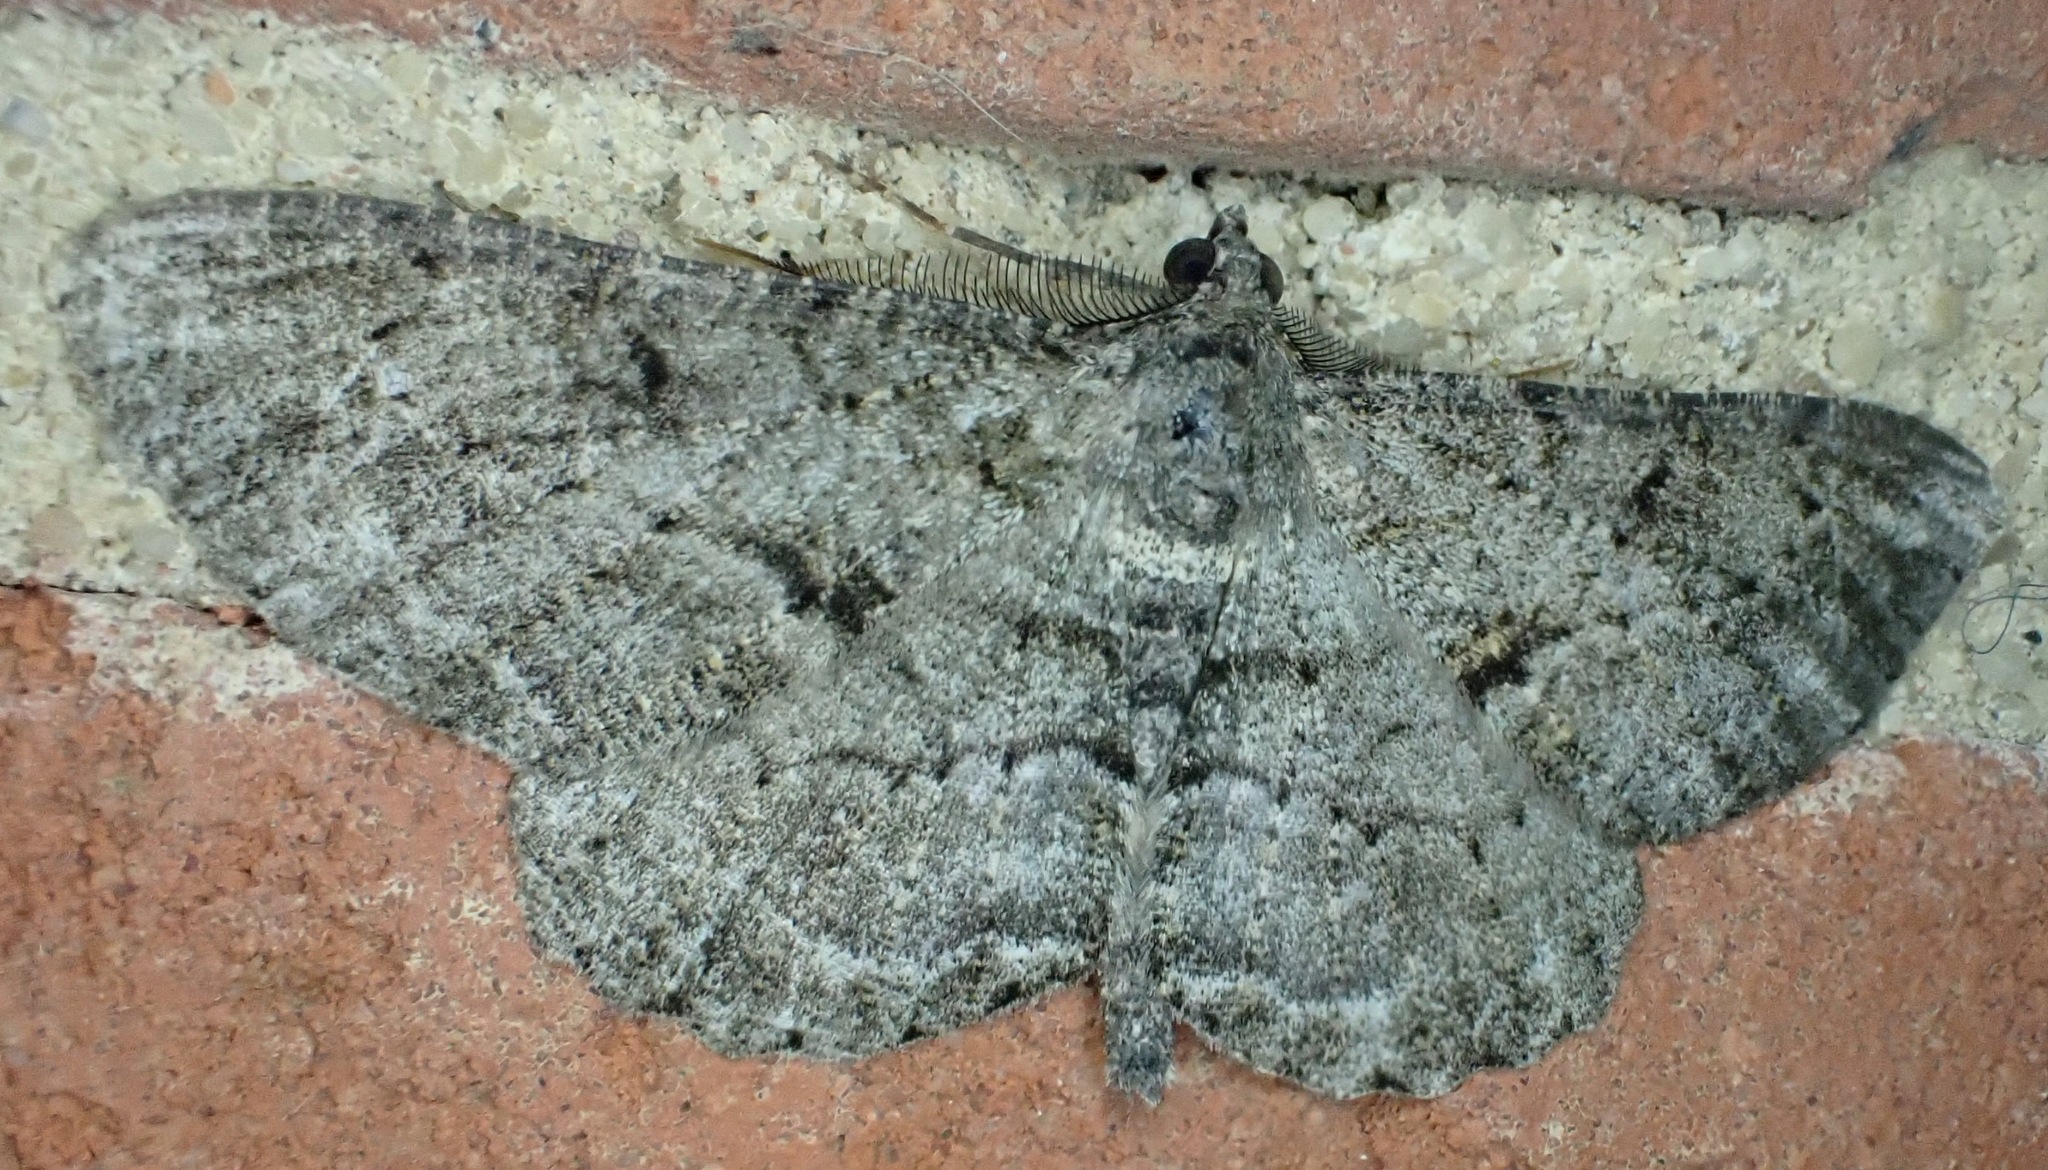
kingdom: Animalia
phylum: Arthropoda
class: Insecta
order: Lepidoptera
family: Geometridae
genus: Peribatodes
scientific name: Peribatodes rhomboidaria
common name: Willow beauty
